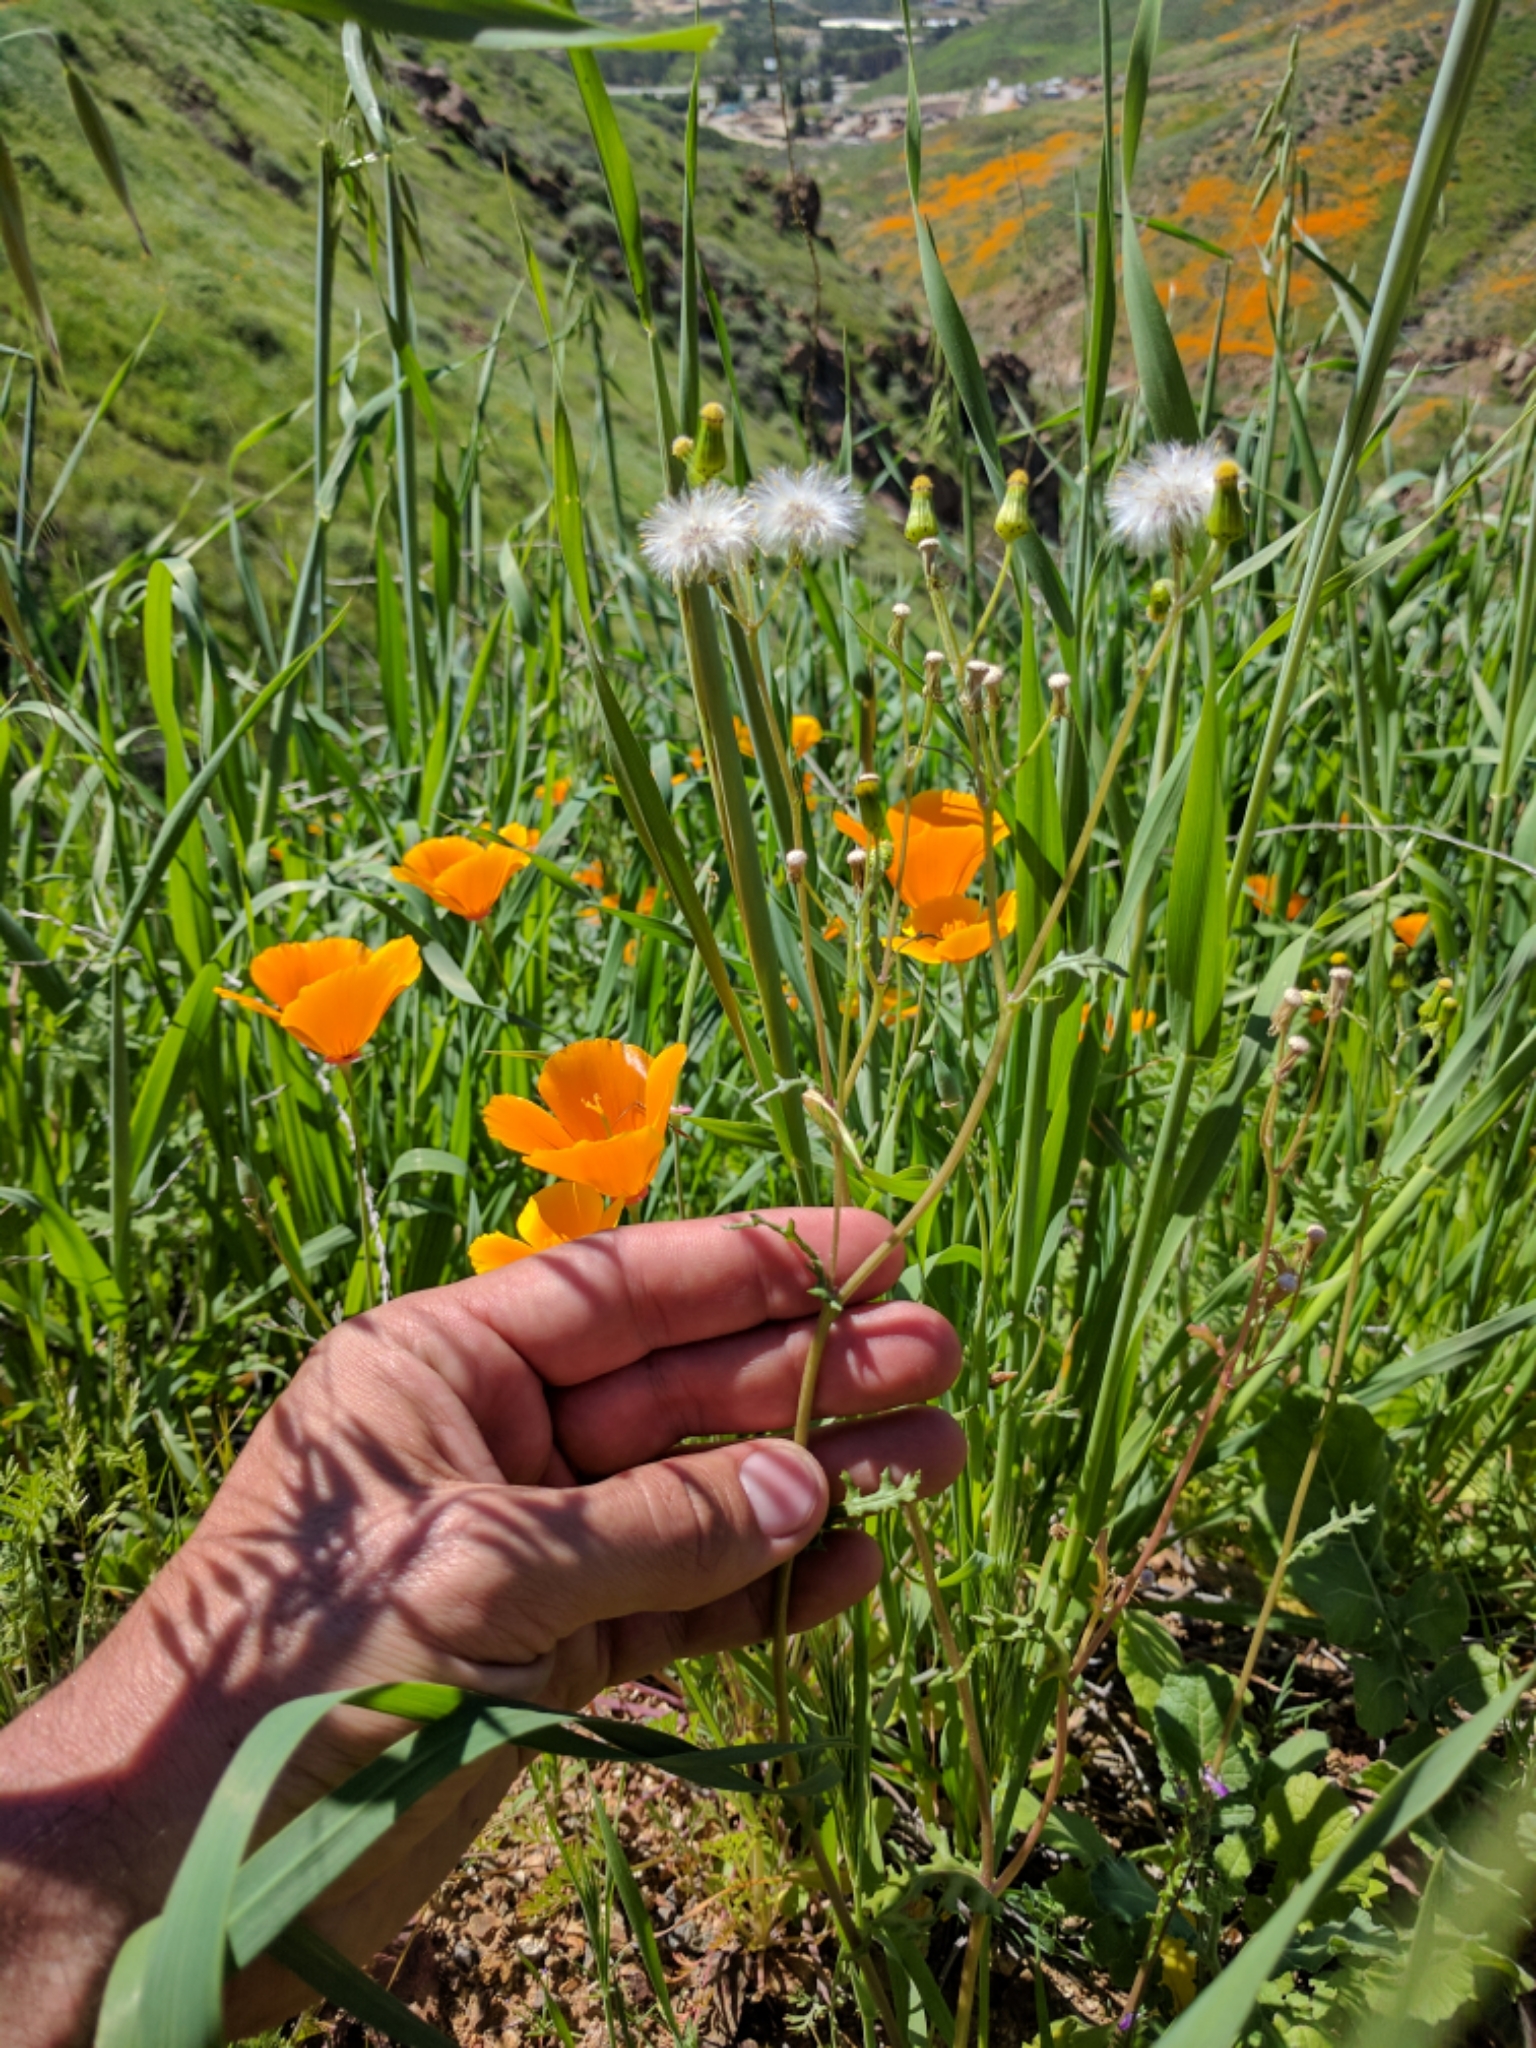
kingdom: Plantae
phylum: Tracheophyta
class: Magnoliopsida
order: Asterales
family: Asteraceae
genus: Senecio
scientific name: Senecio vulgaris
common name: Old-man-in-the-spring
